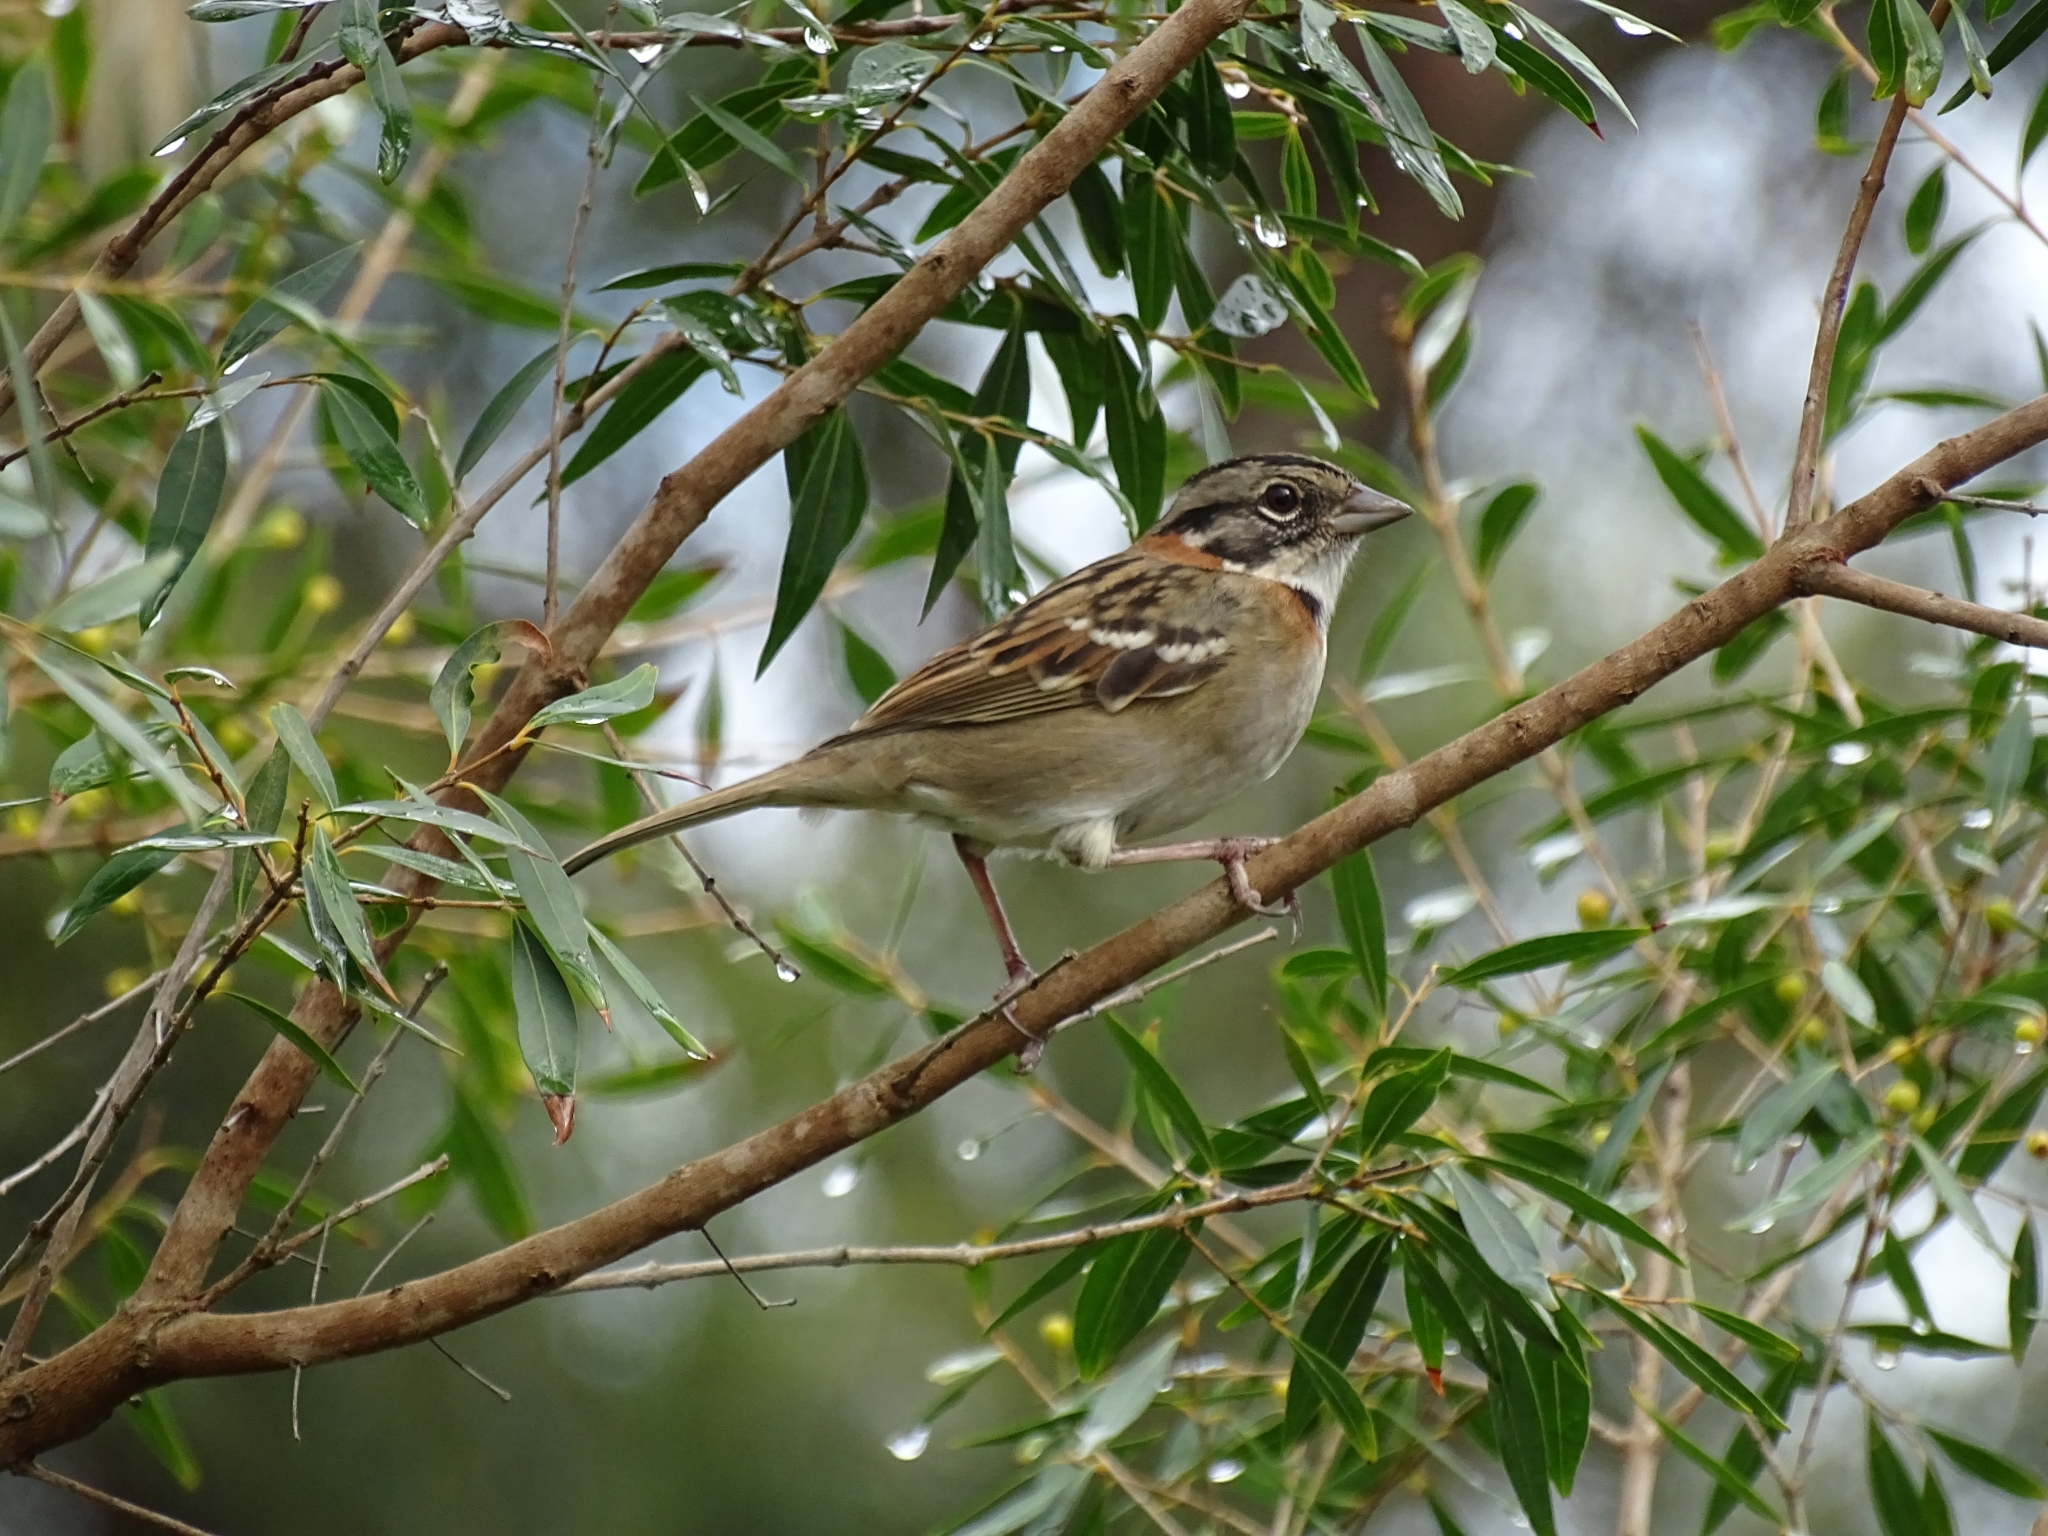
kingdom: Animalia
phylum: Chordata
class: Aves
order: Passeriformes
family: Passerellidae
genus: Zonotrichia
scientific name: Zonotrichia capensis
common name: Rufous-collared sparrow
